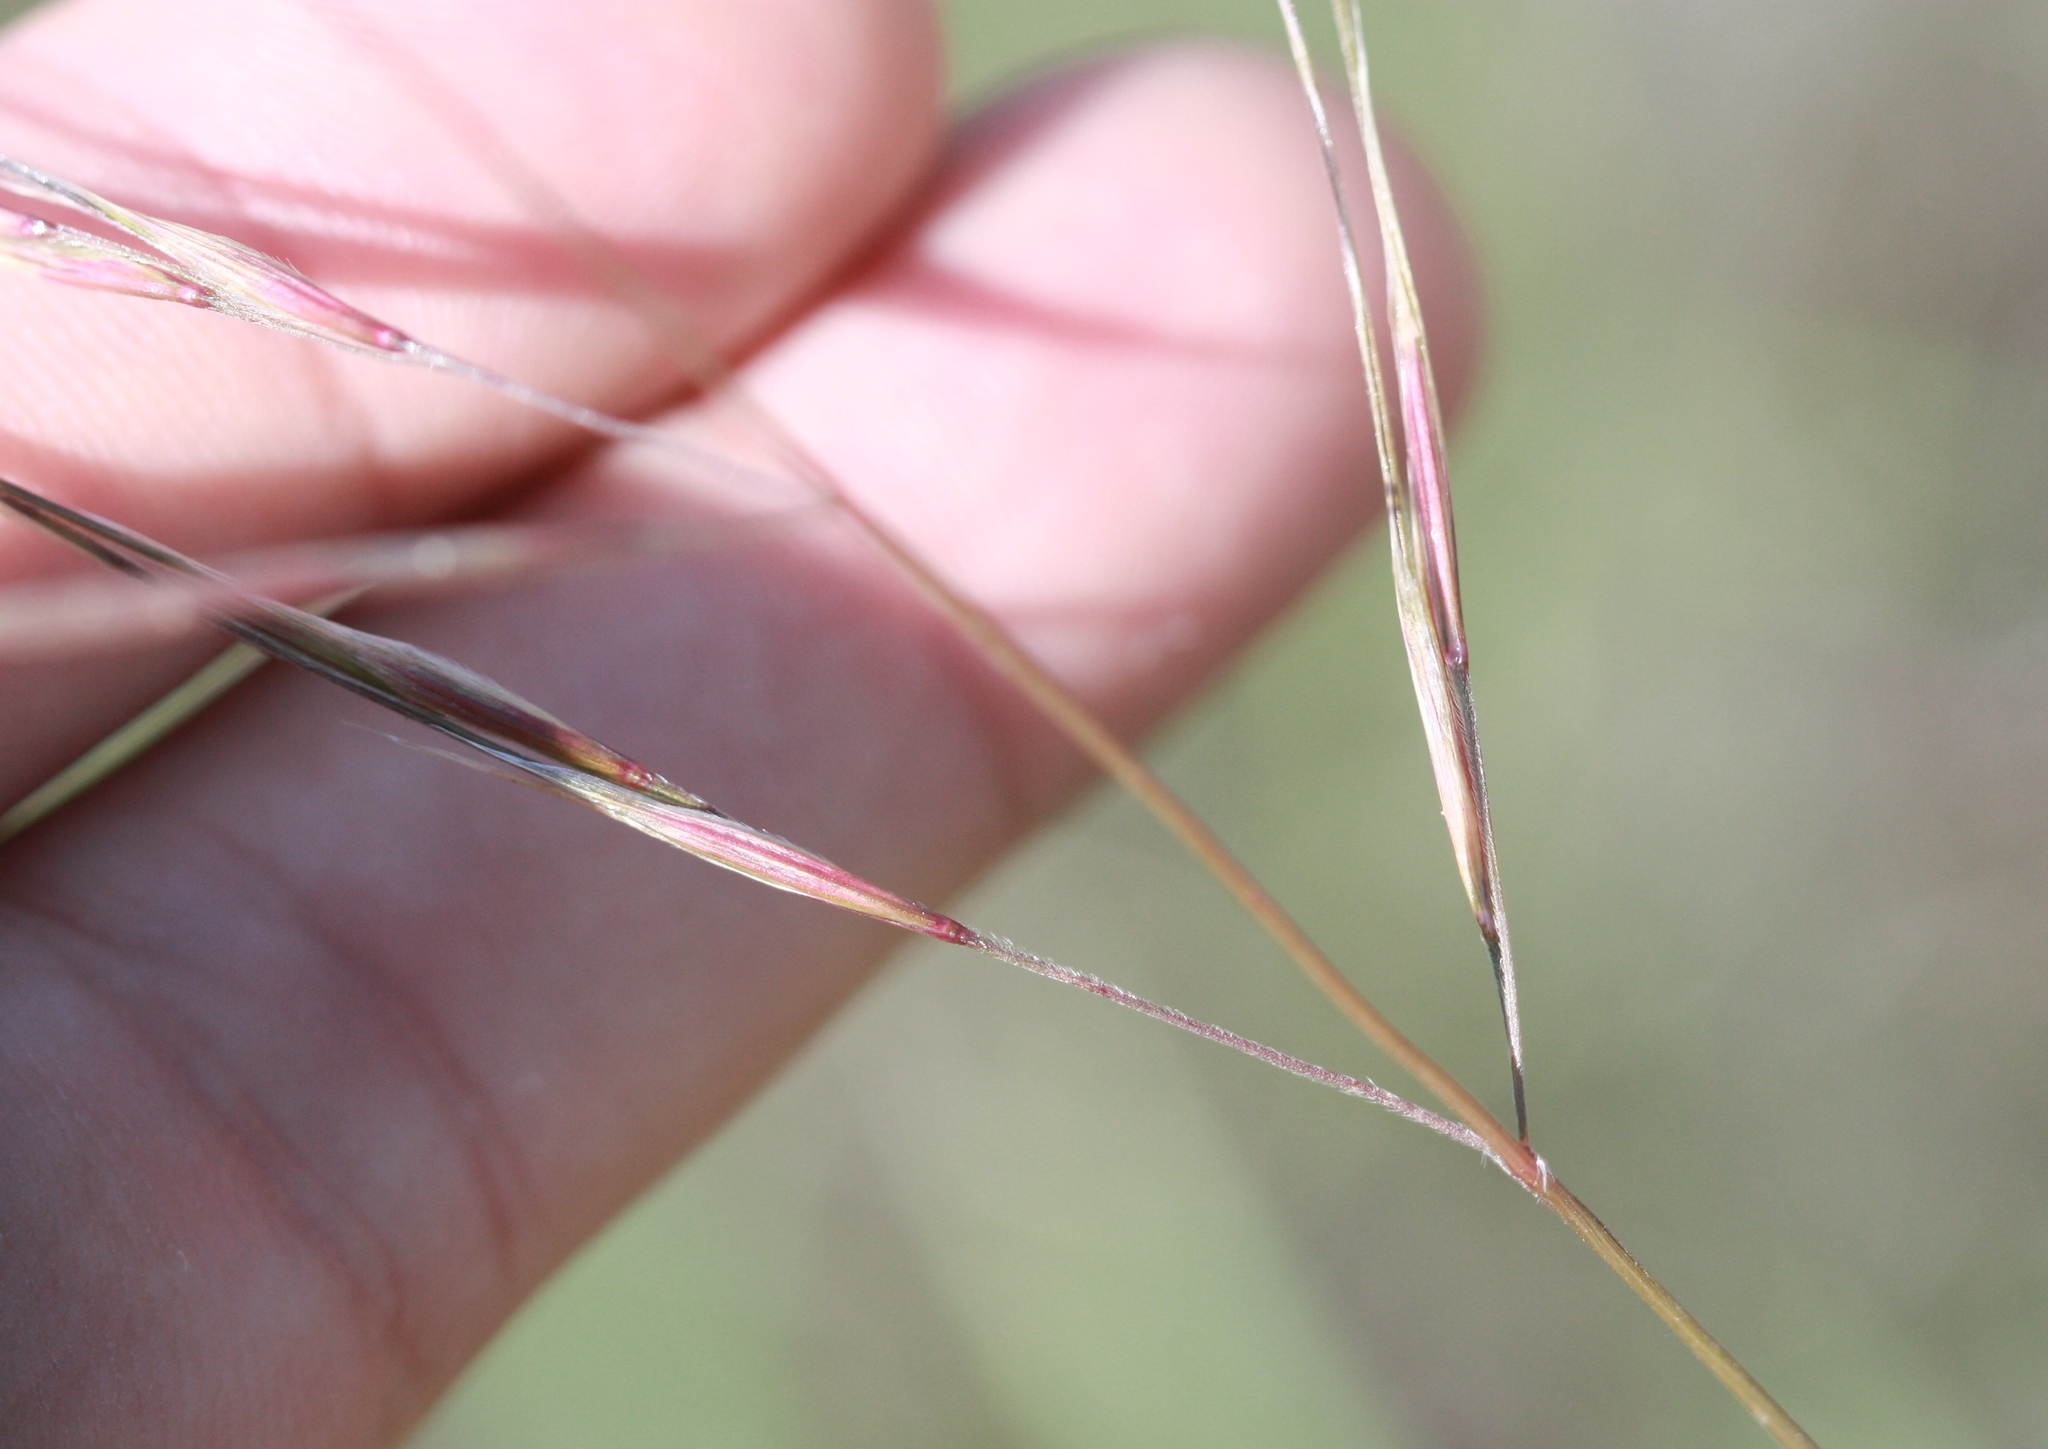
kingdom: Plantae
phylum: Tracheophyta
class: Liliopsida
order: Poales
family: Poaceae
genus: Nassella
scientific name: Nassella pulchra
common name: Purple needlegrass
